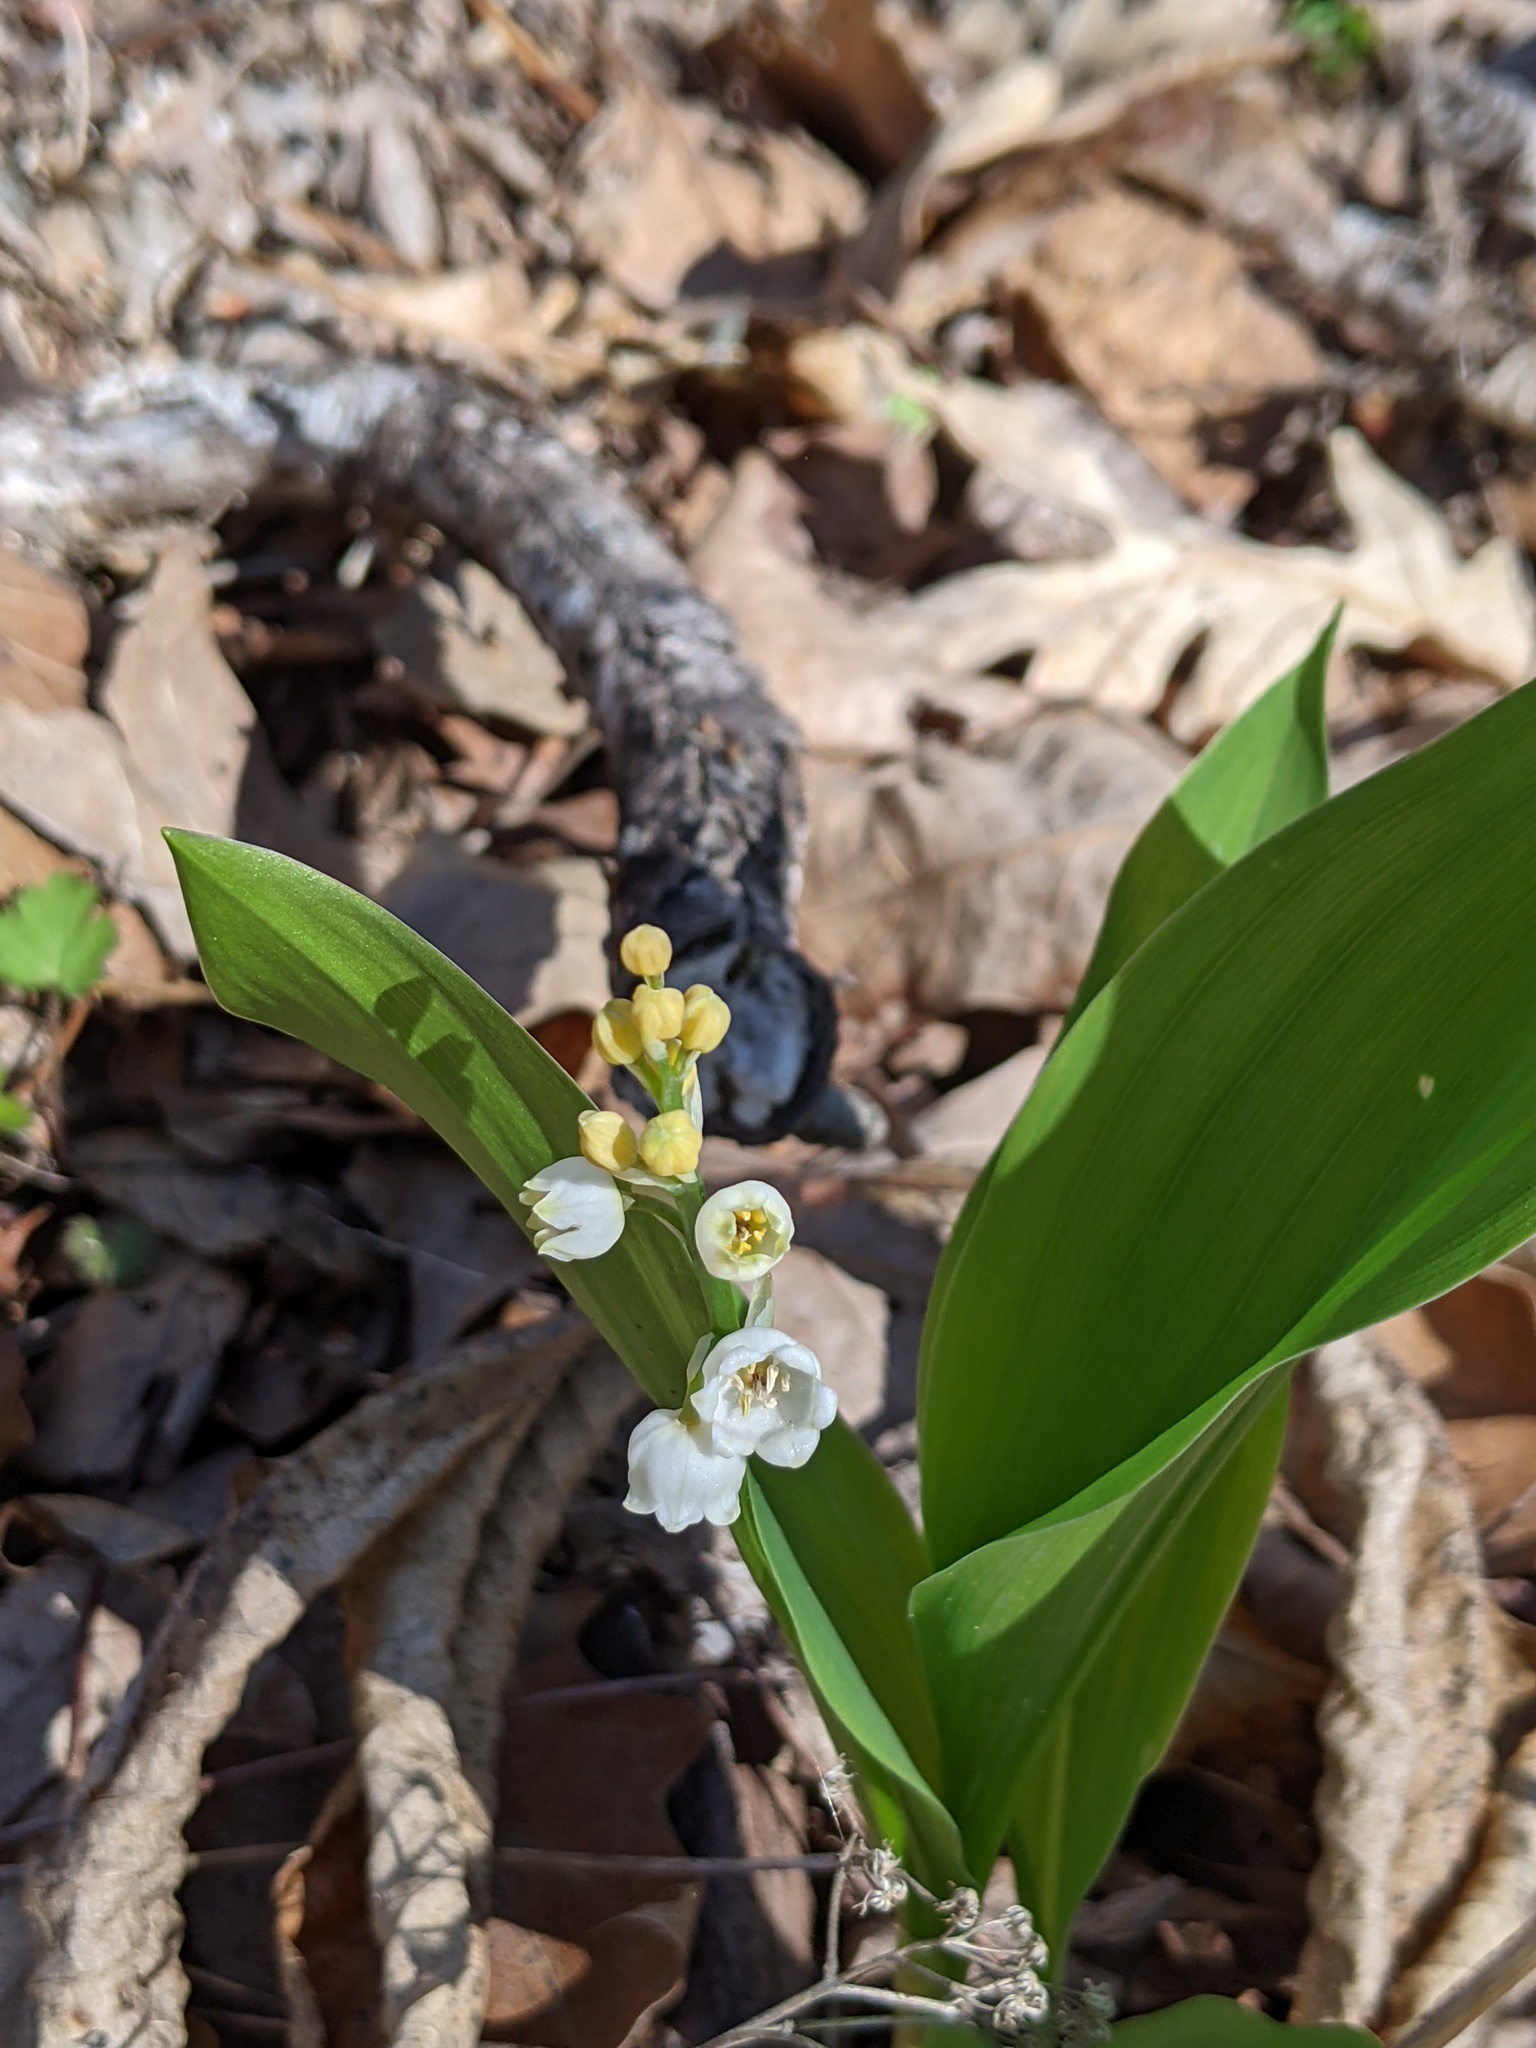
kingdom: Plantae
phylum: Tracheophyta
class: Liliopsida
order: Asparagales
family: Asparagaceae
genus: Convallaria
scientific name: Convallaria majalis
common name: Lily-of-the-valley
